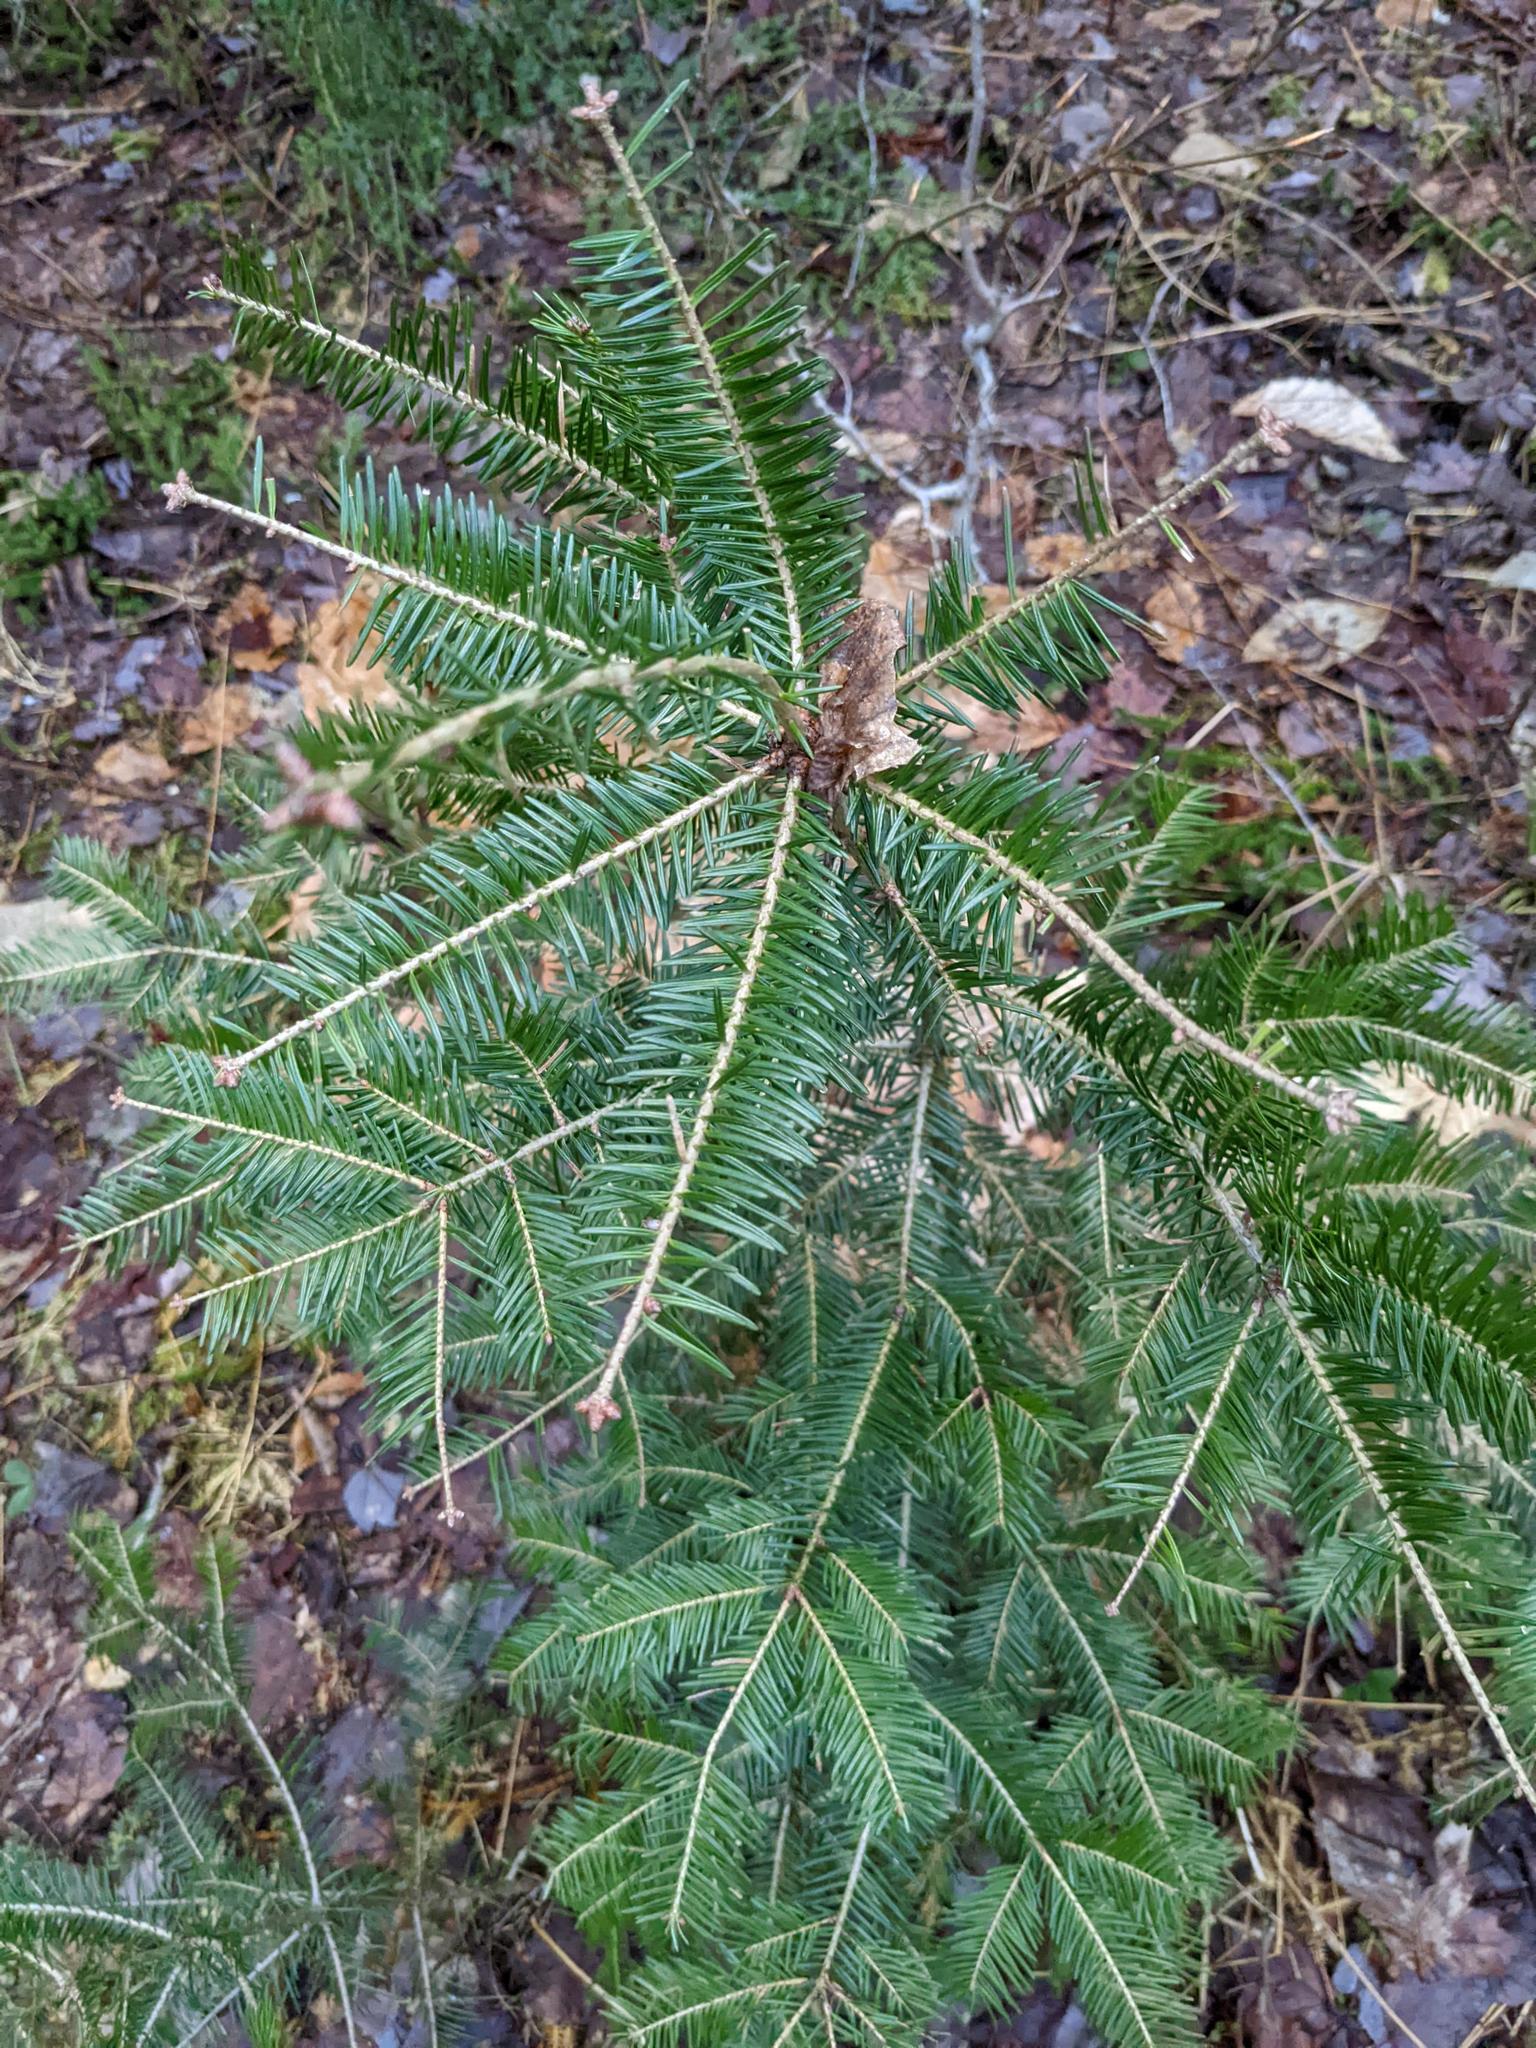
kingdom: Plantae
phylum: Tracheophyta
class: Pinopsida
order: Pinales
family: Pinaceae
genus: Abies
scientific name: Abies balsamea
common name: Balsam fir
